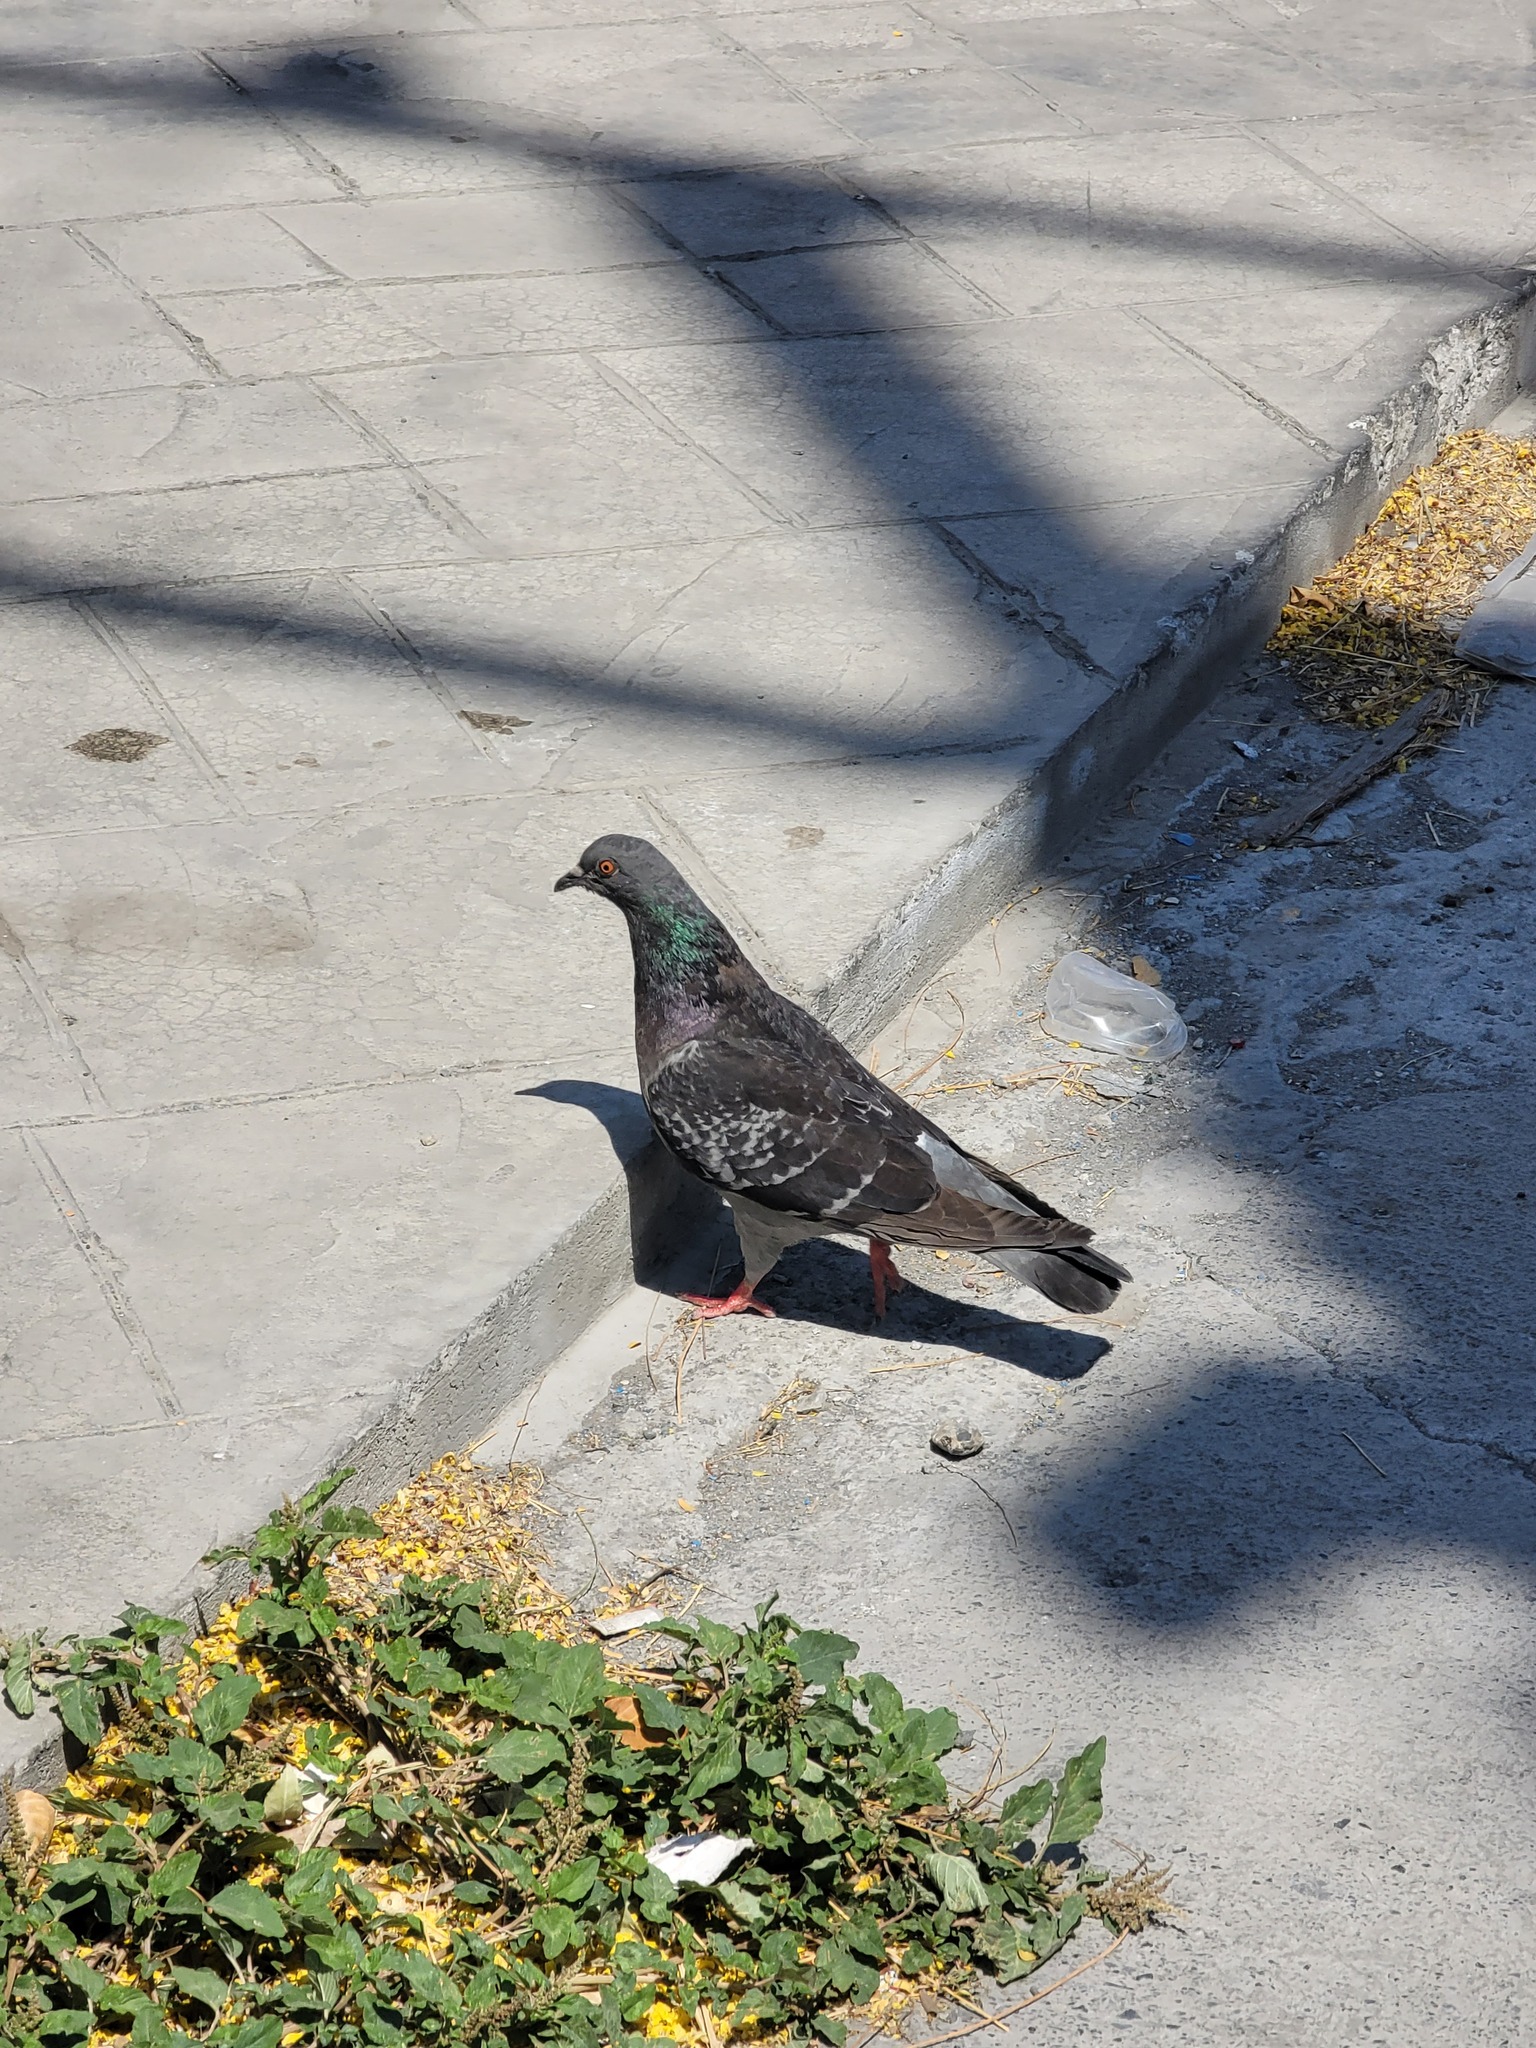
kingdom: Animalia
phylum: Chordata
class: Aves
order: Columbiformes
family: Columbidae
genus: Columba
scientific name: Columba livia
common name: Rock pigeon
